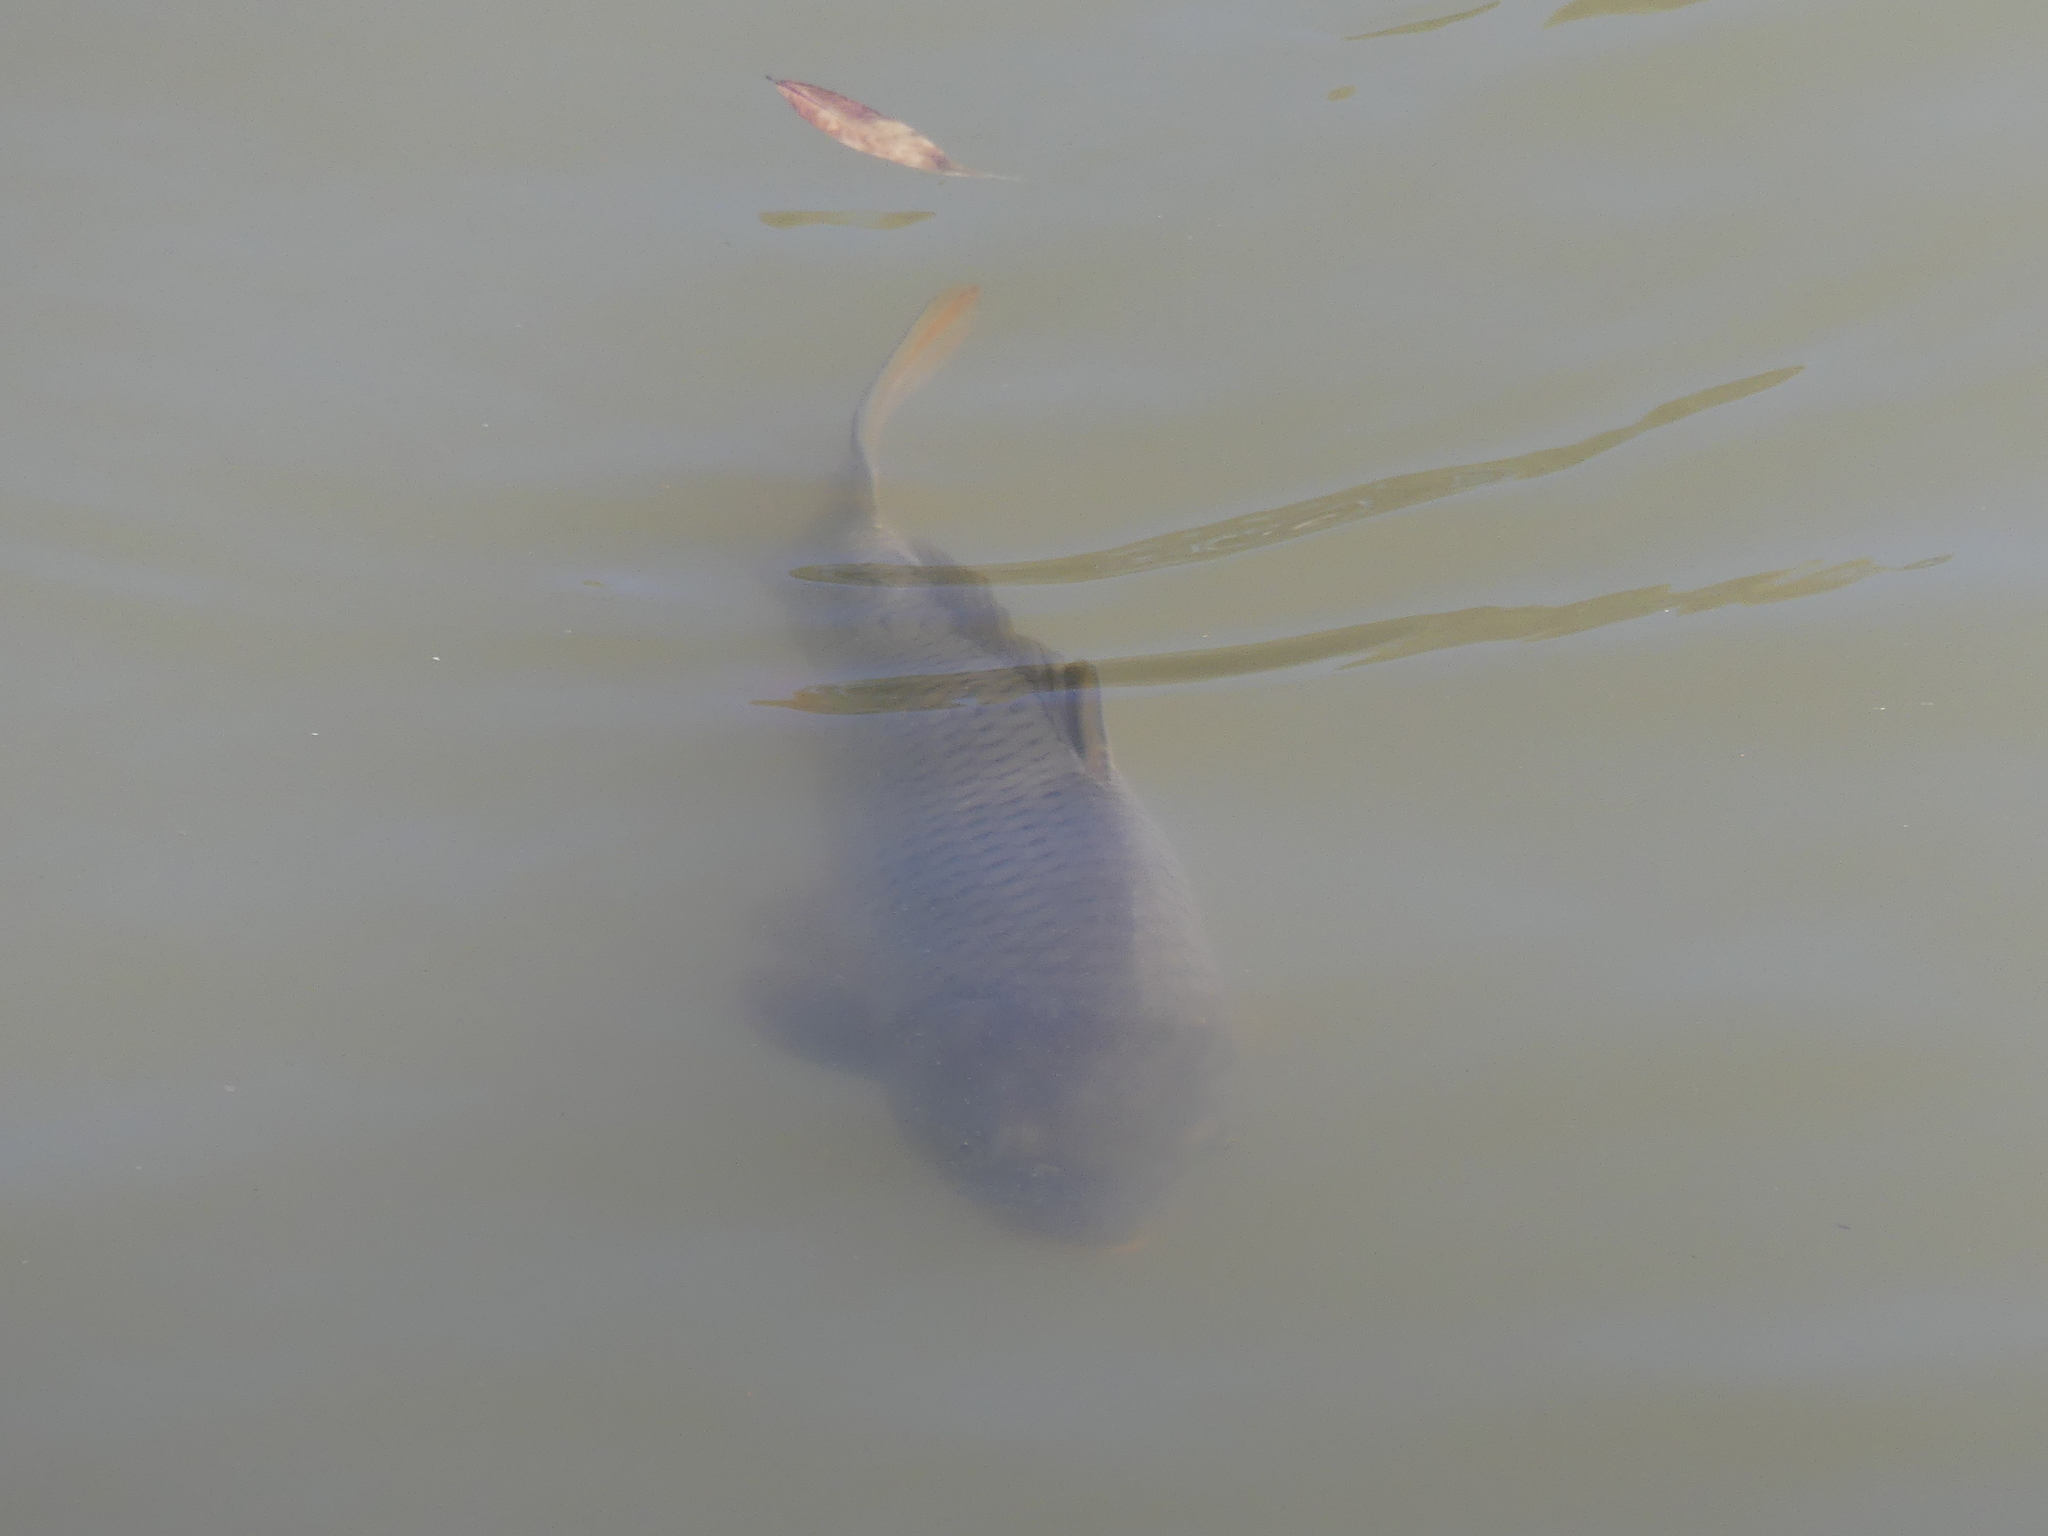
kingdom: Animalia
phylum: Chordata
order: Cypriniformes
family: Cyprinidae
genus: Cyprinus
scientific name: Cyprinus carpio
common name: Common carp
